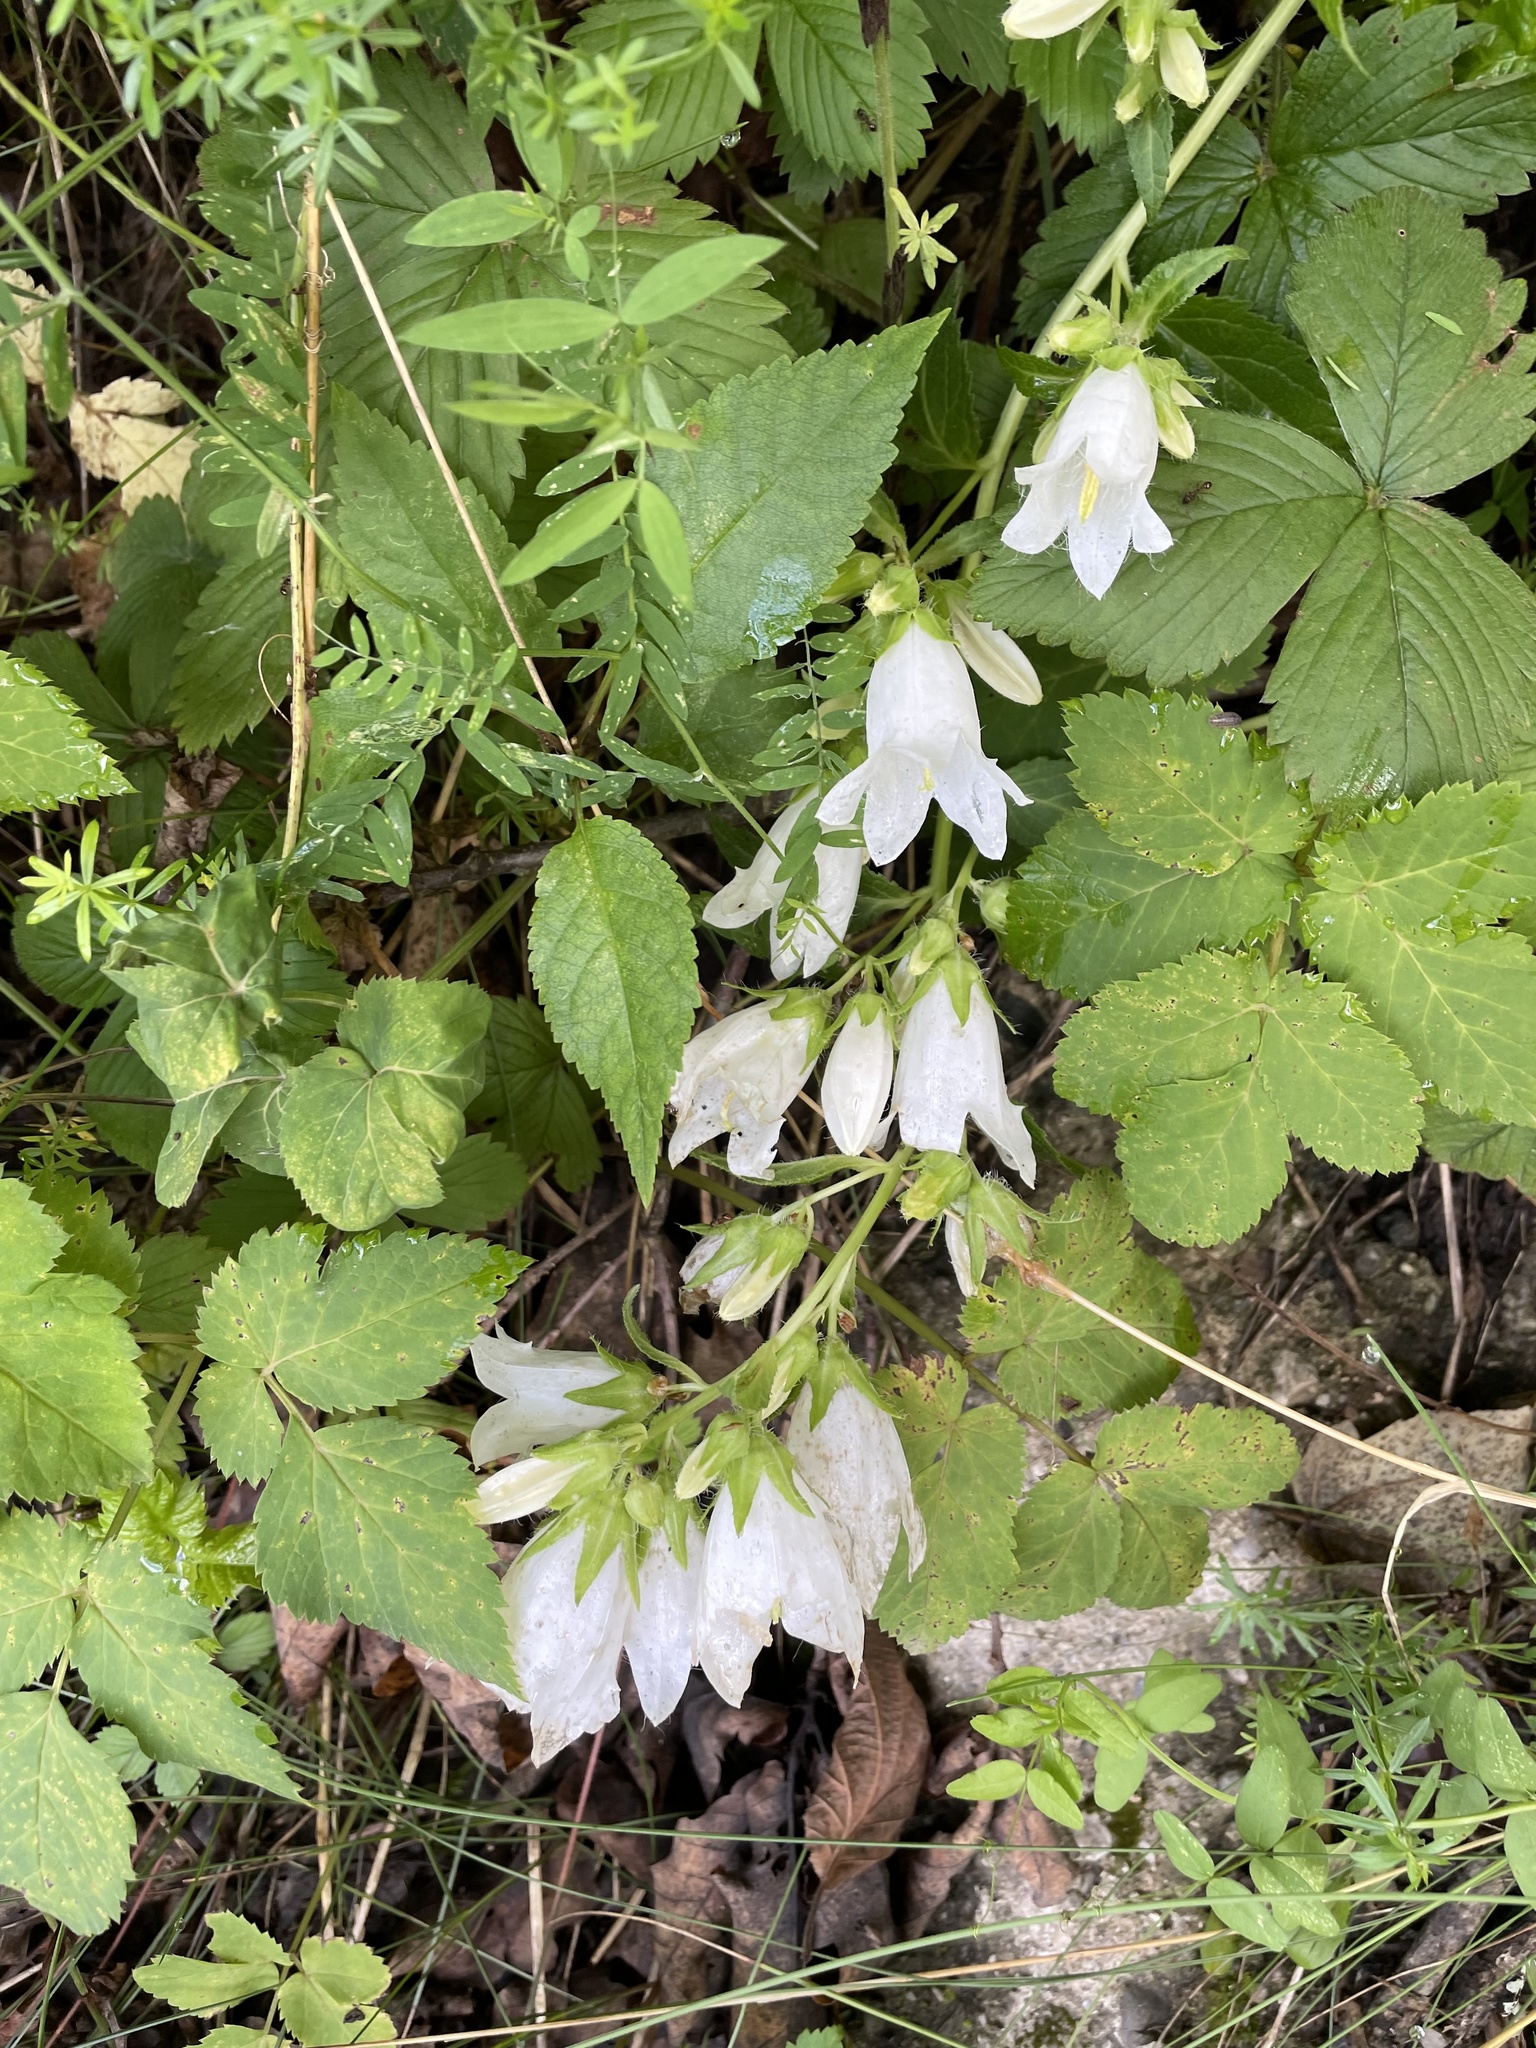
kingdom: Plantae
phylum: Tracheophyta
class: Magnoliopsida
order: Asterales
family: Campanulaceae
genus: Campanula
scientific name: Campanula trachelium
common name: Nettle-leaved bellflower
